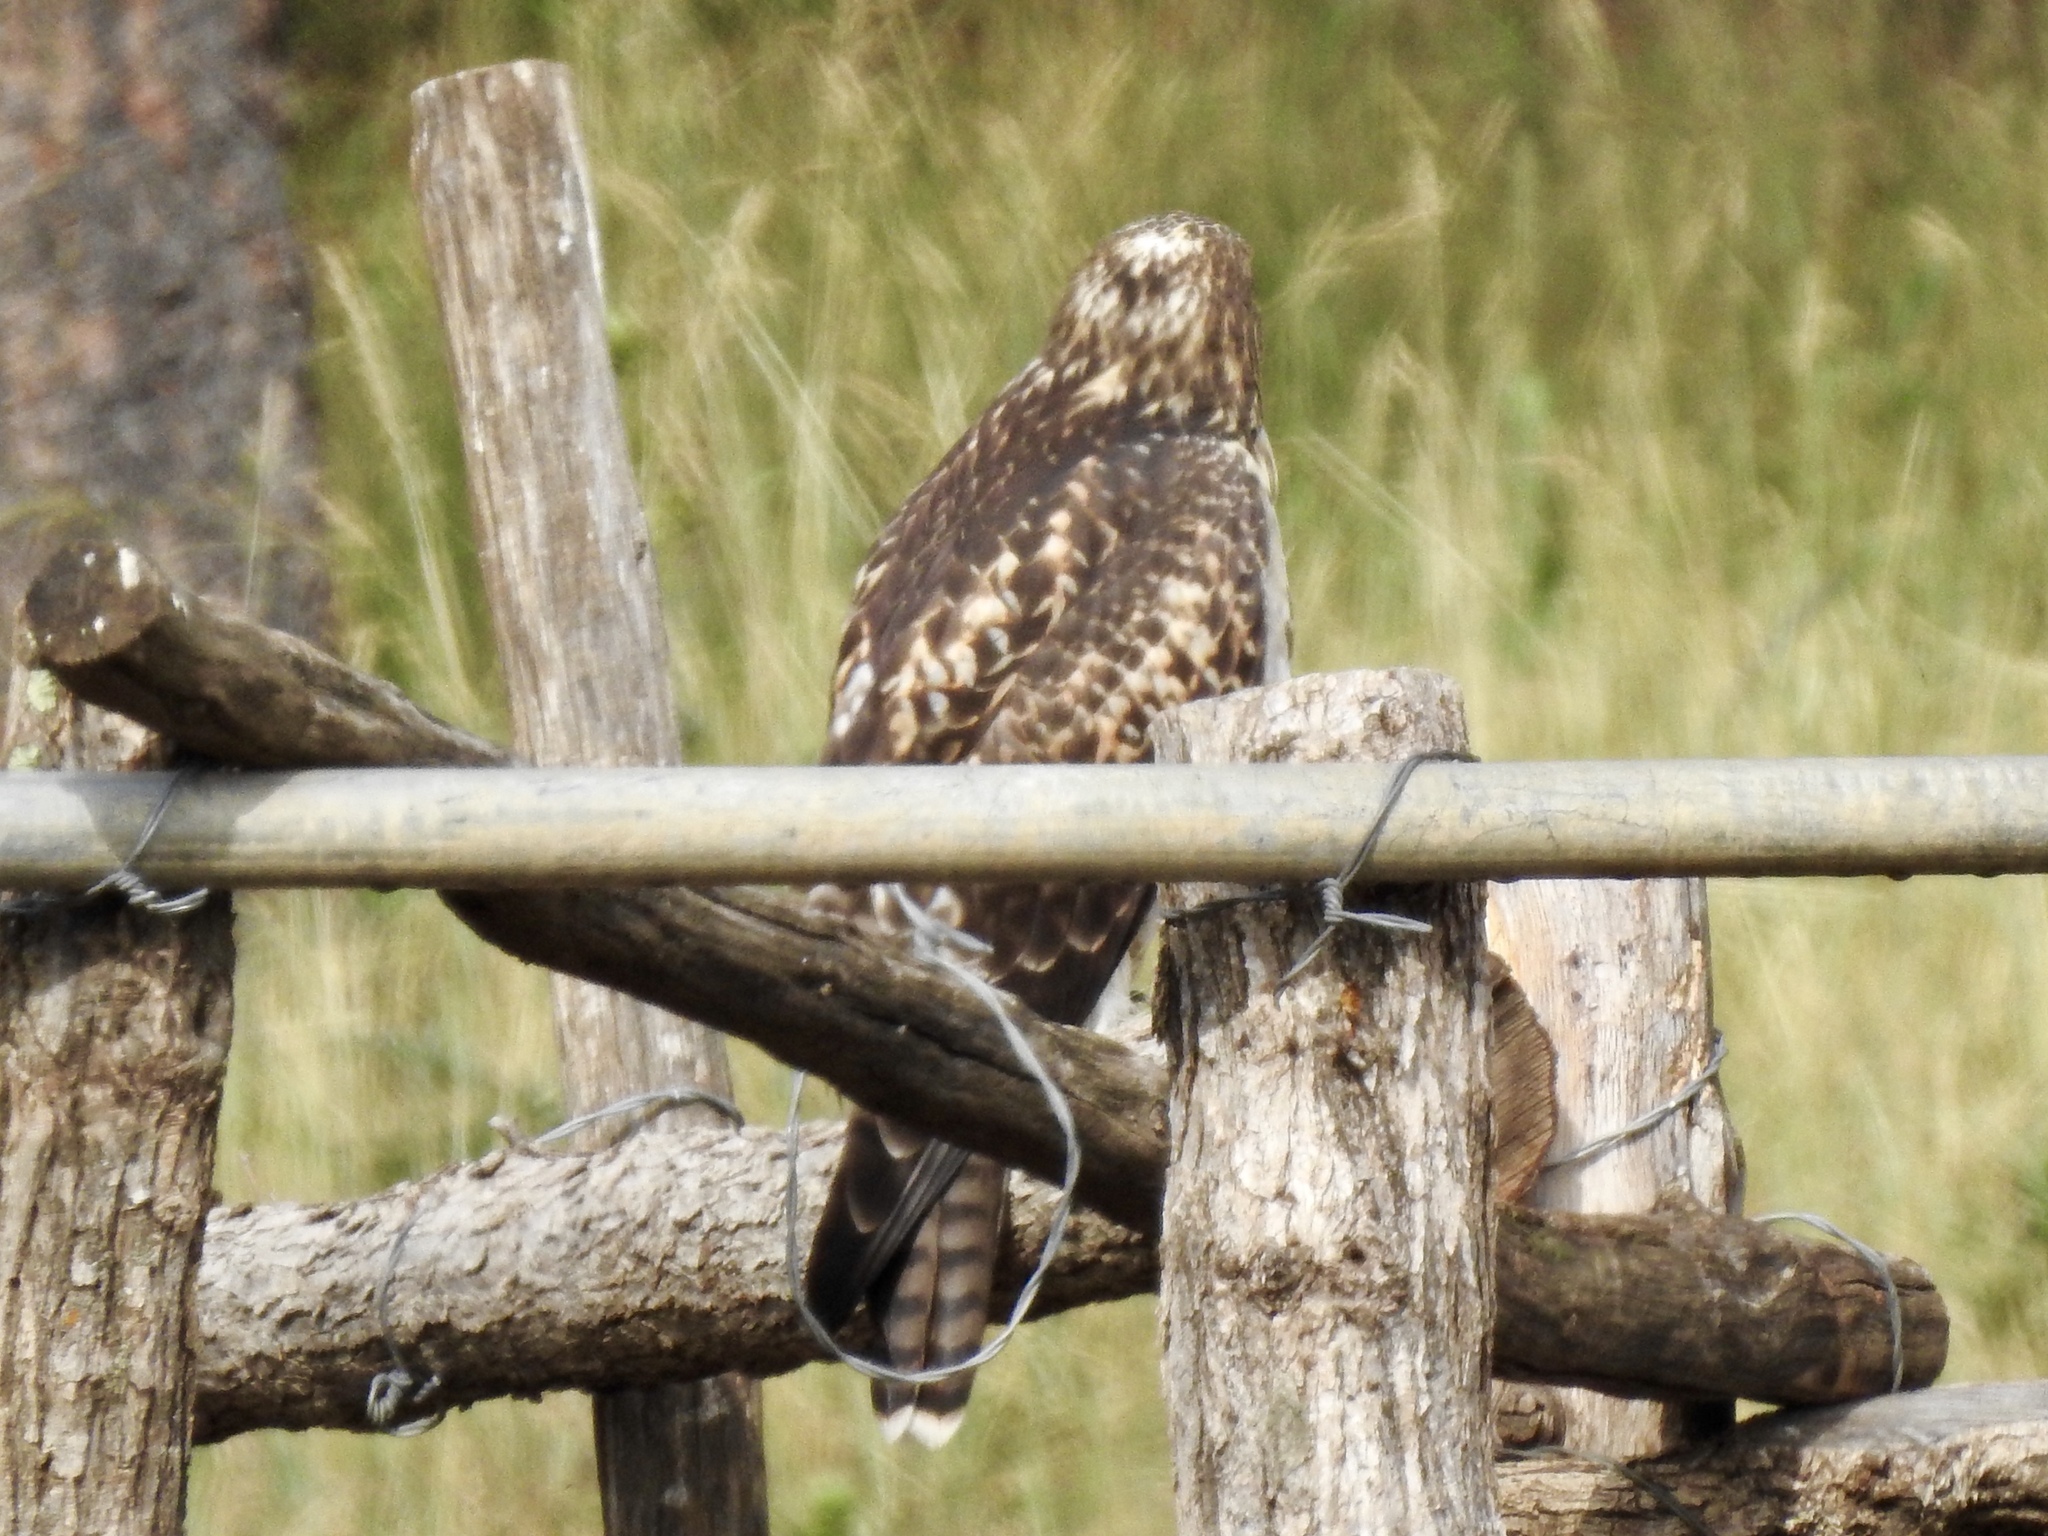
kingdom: Animalia
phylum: Chordata
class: Aves
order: Accipitriformes
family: Accipitridae
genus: Buteo
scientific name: Buteo jamaicensis
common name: Red-tailed hawk
